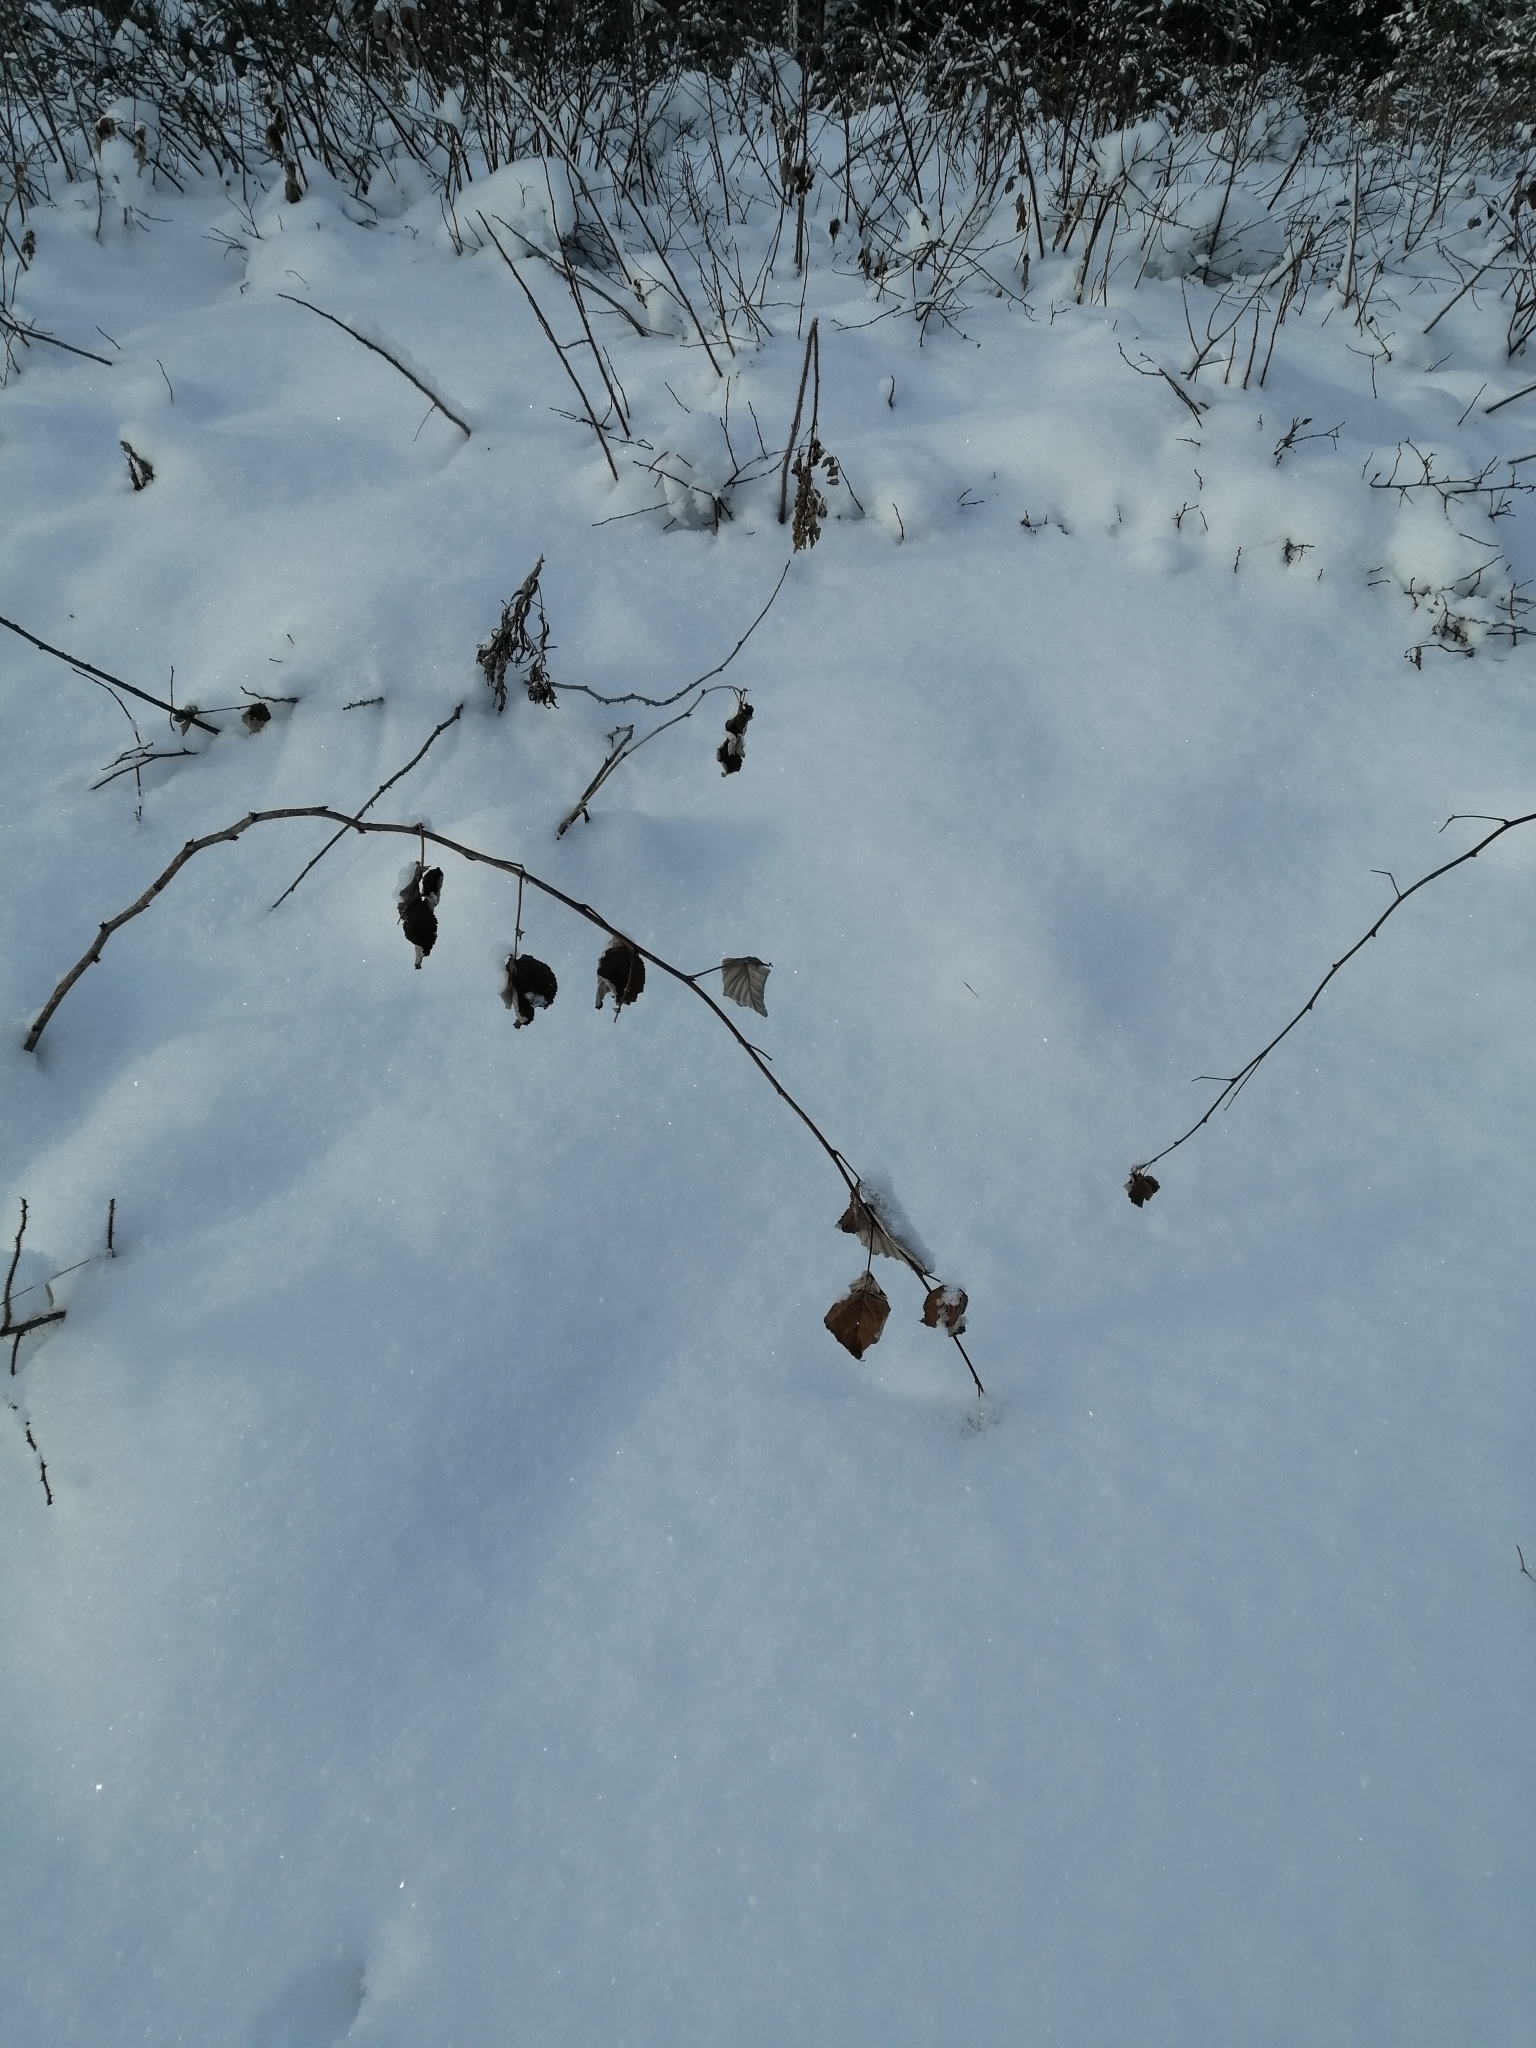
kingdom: Plantae
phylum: Tracheophyta
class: Magnoliopsida
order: Rosales
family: Rosaceae
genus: Rubus
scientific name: Rubus idaeus
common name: Raspberry
